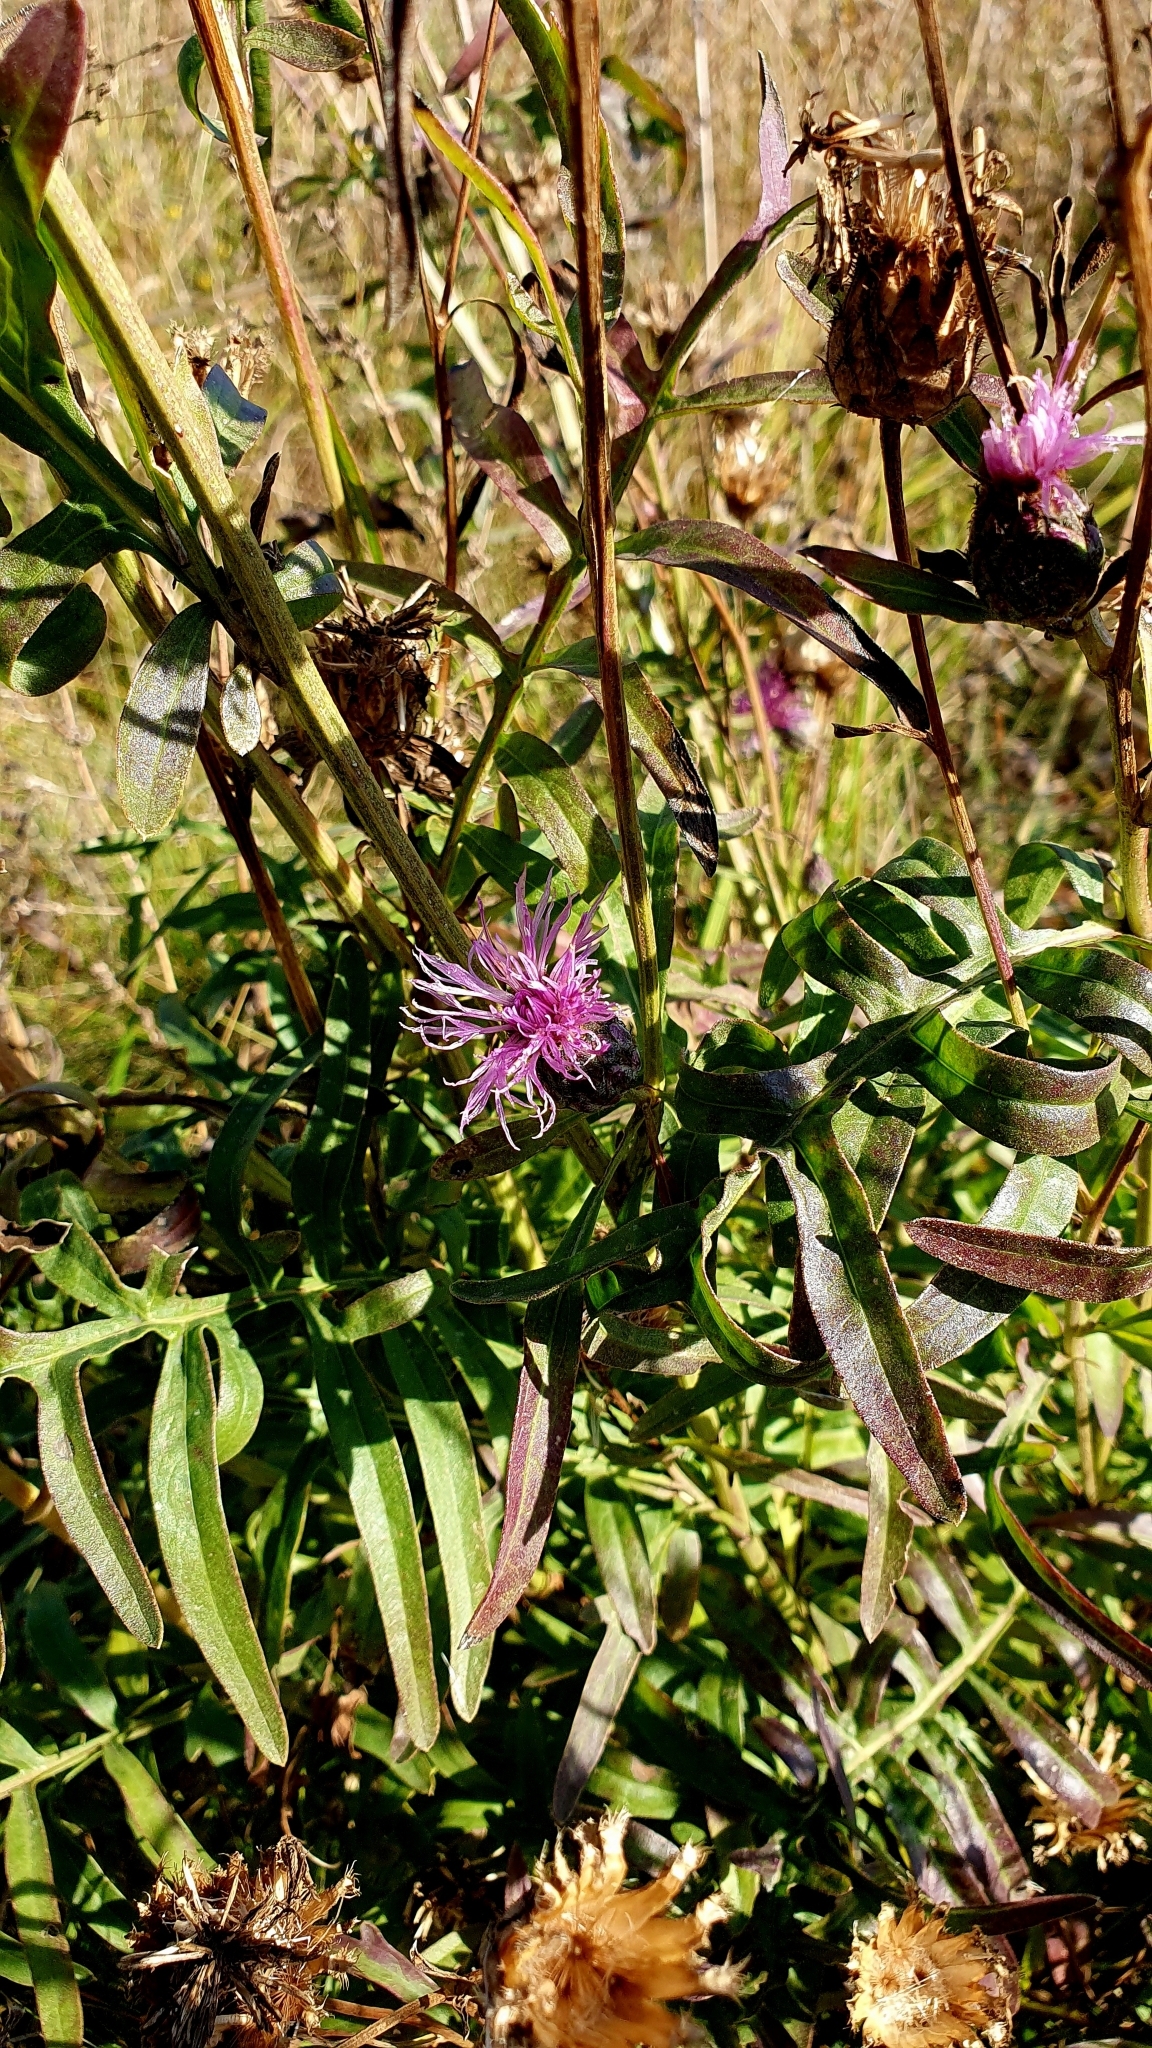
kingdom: Plantae
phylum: Tracheophyta
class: Magnoliopsida
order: Asterales
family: Asteraceae
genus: Centaurea
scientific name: Centaurea scabiosa
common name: Greater knapweed
